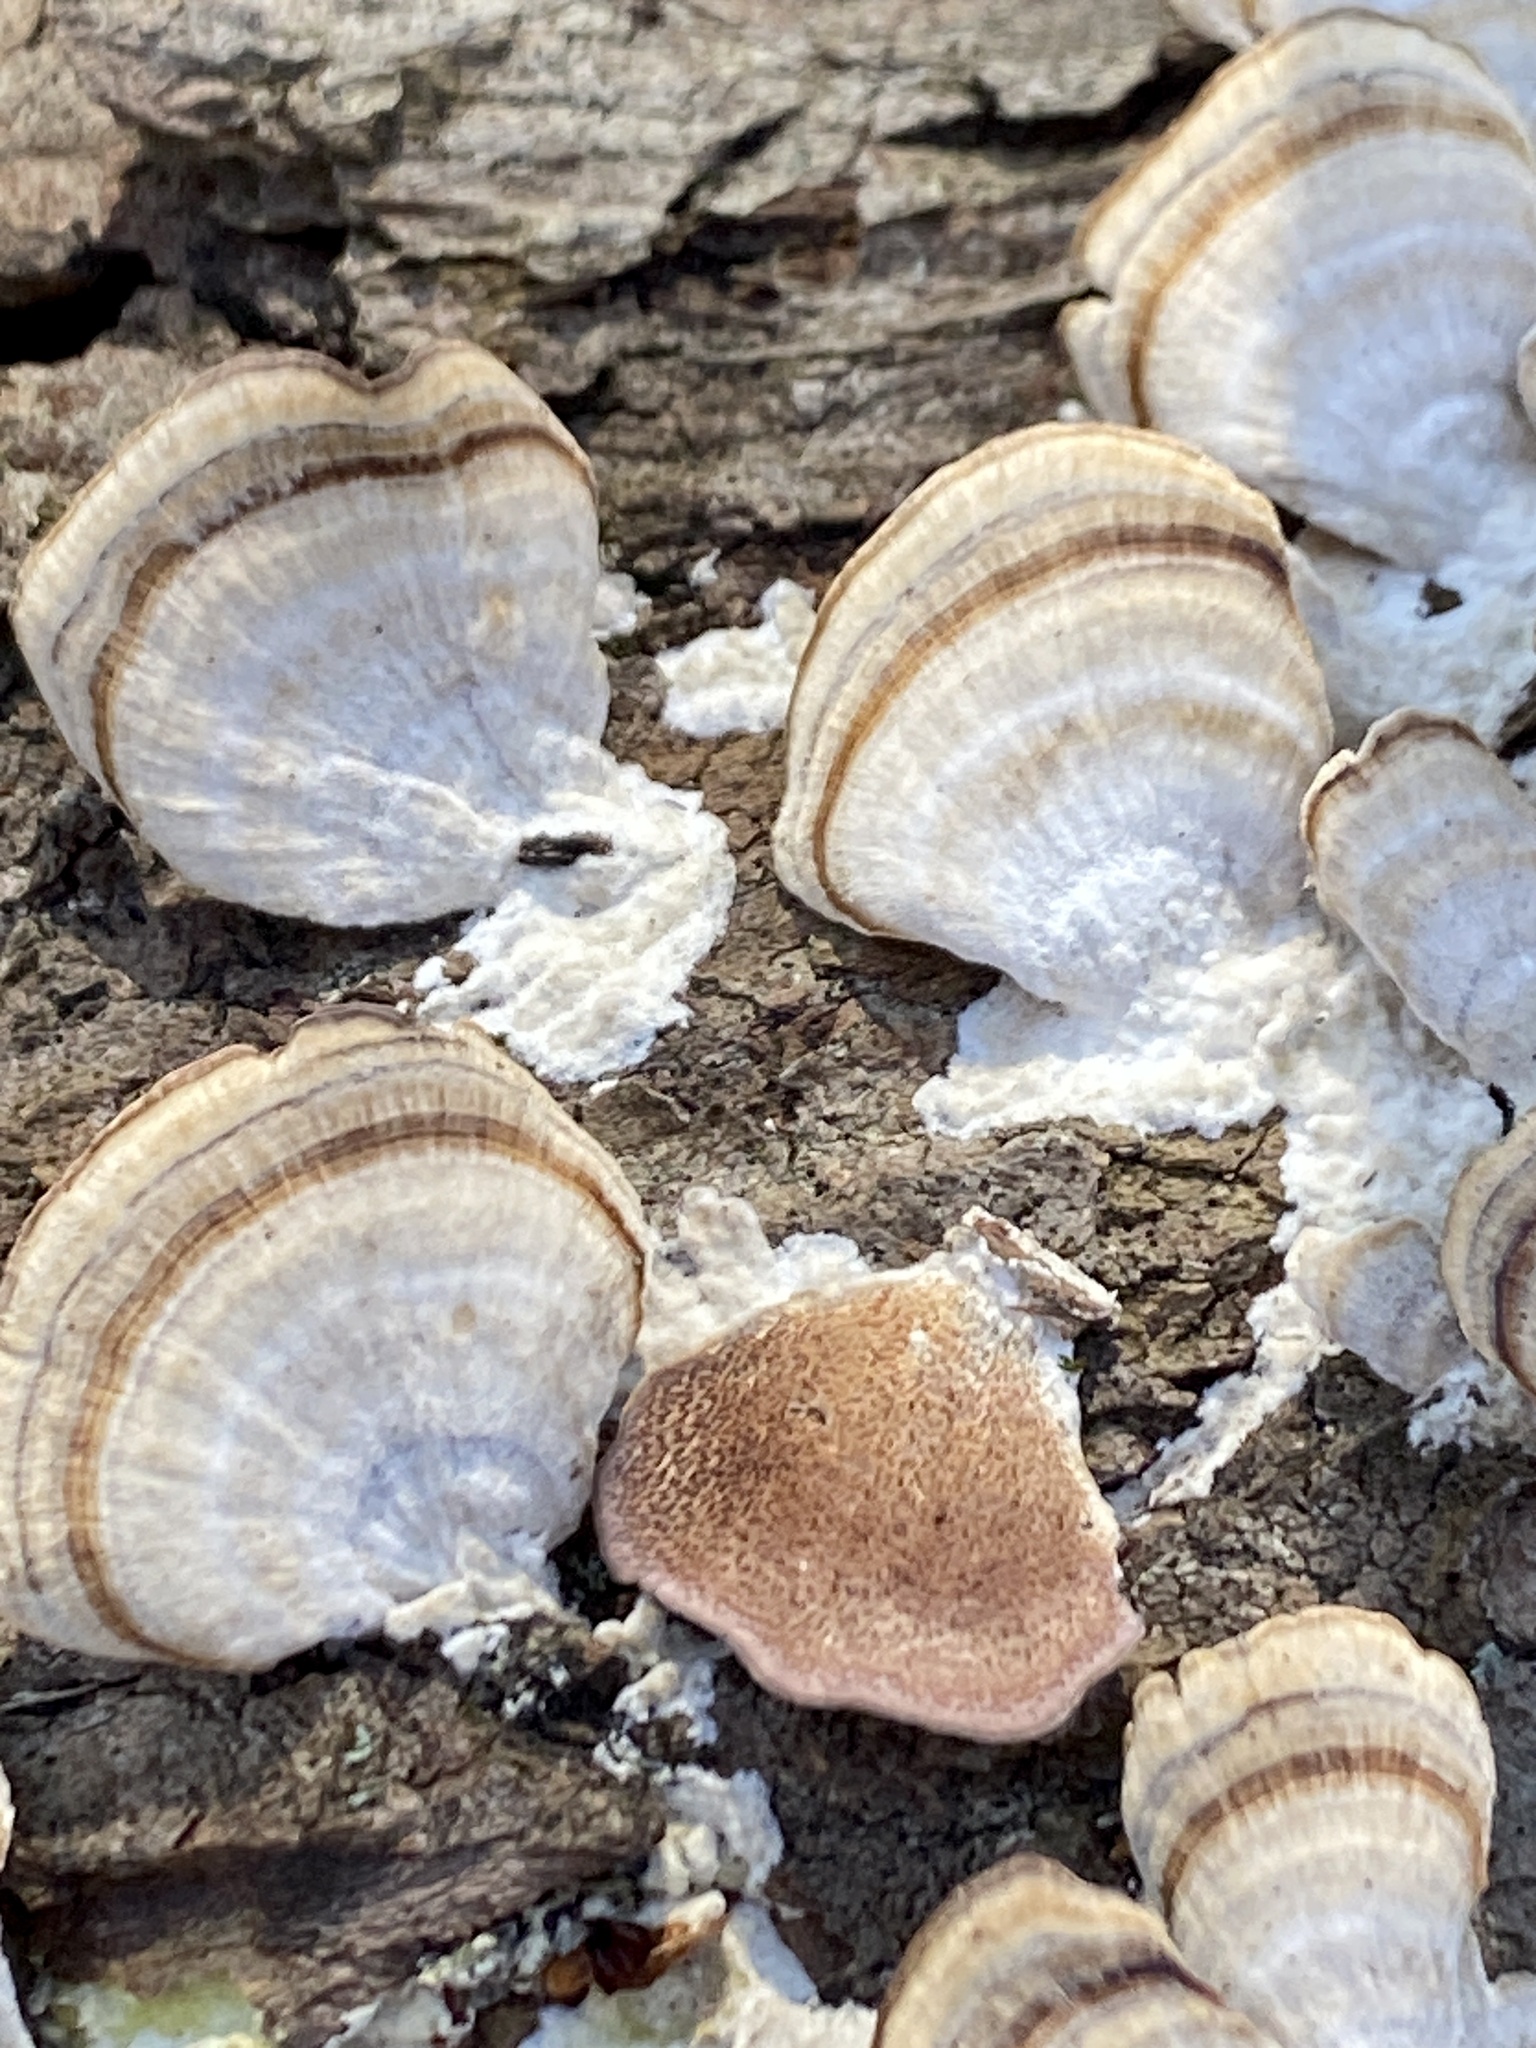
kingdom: Fungi
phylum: Basidiomycota
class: Agaricomycetes
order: Hymenochaetales
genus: Trichaptum
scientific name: Trichaptum biforme
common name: Violet-toothed polypore
